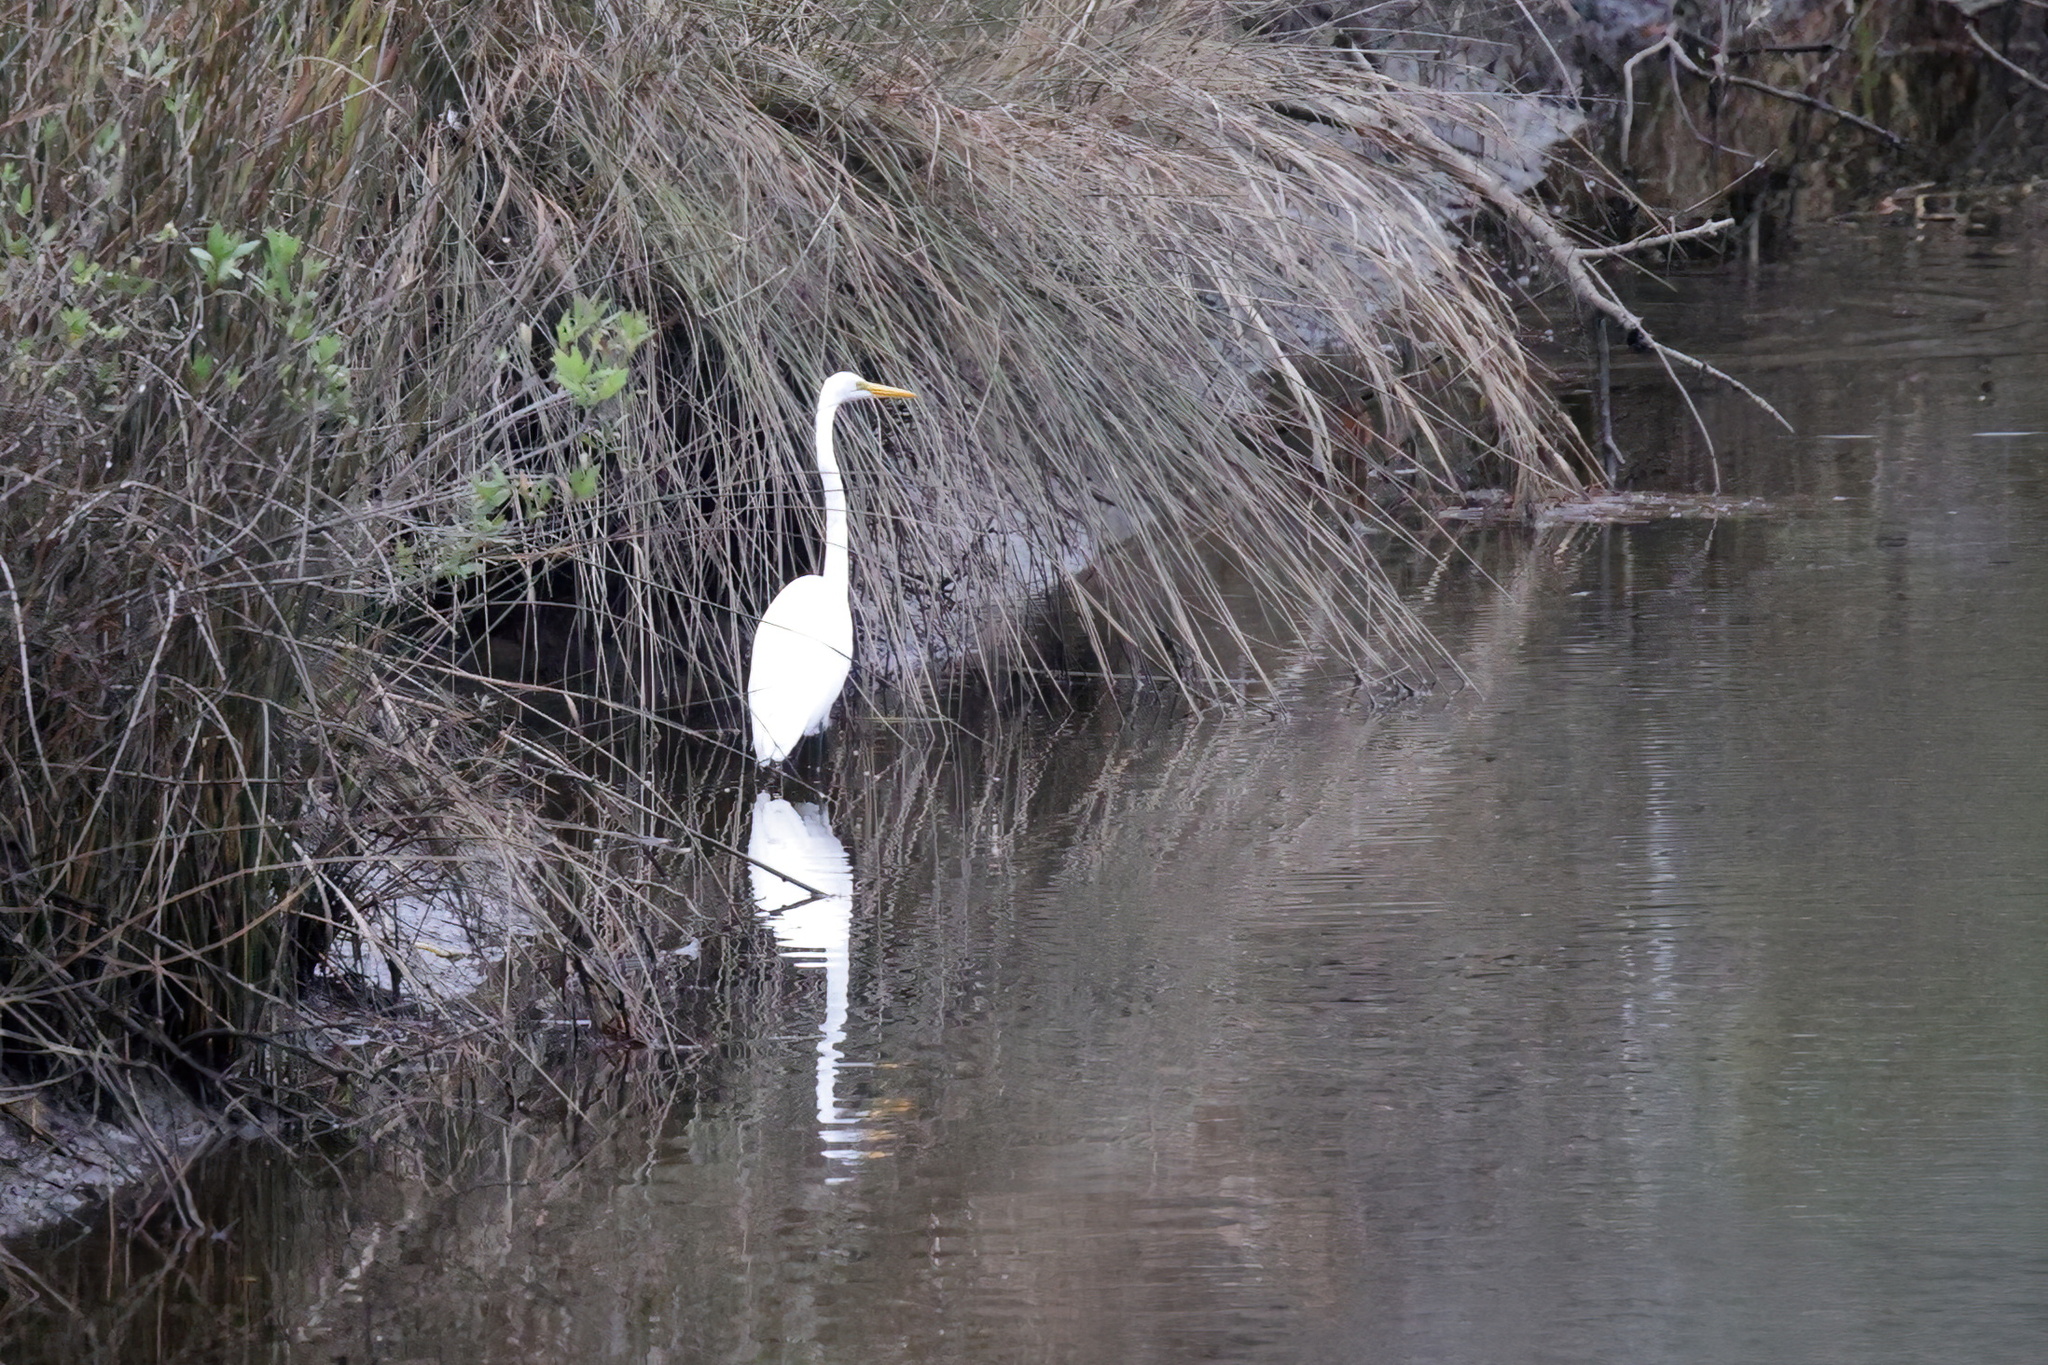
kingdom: Animalia
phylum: Chordata
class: Aves
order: Pelecaniformes
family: Ardeidae
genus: Ardea
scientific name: Ardea alba
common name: Great egret
